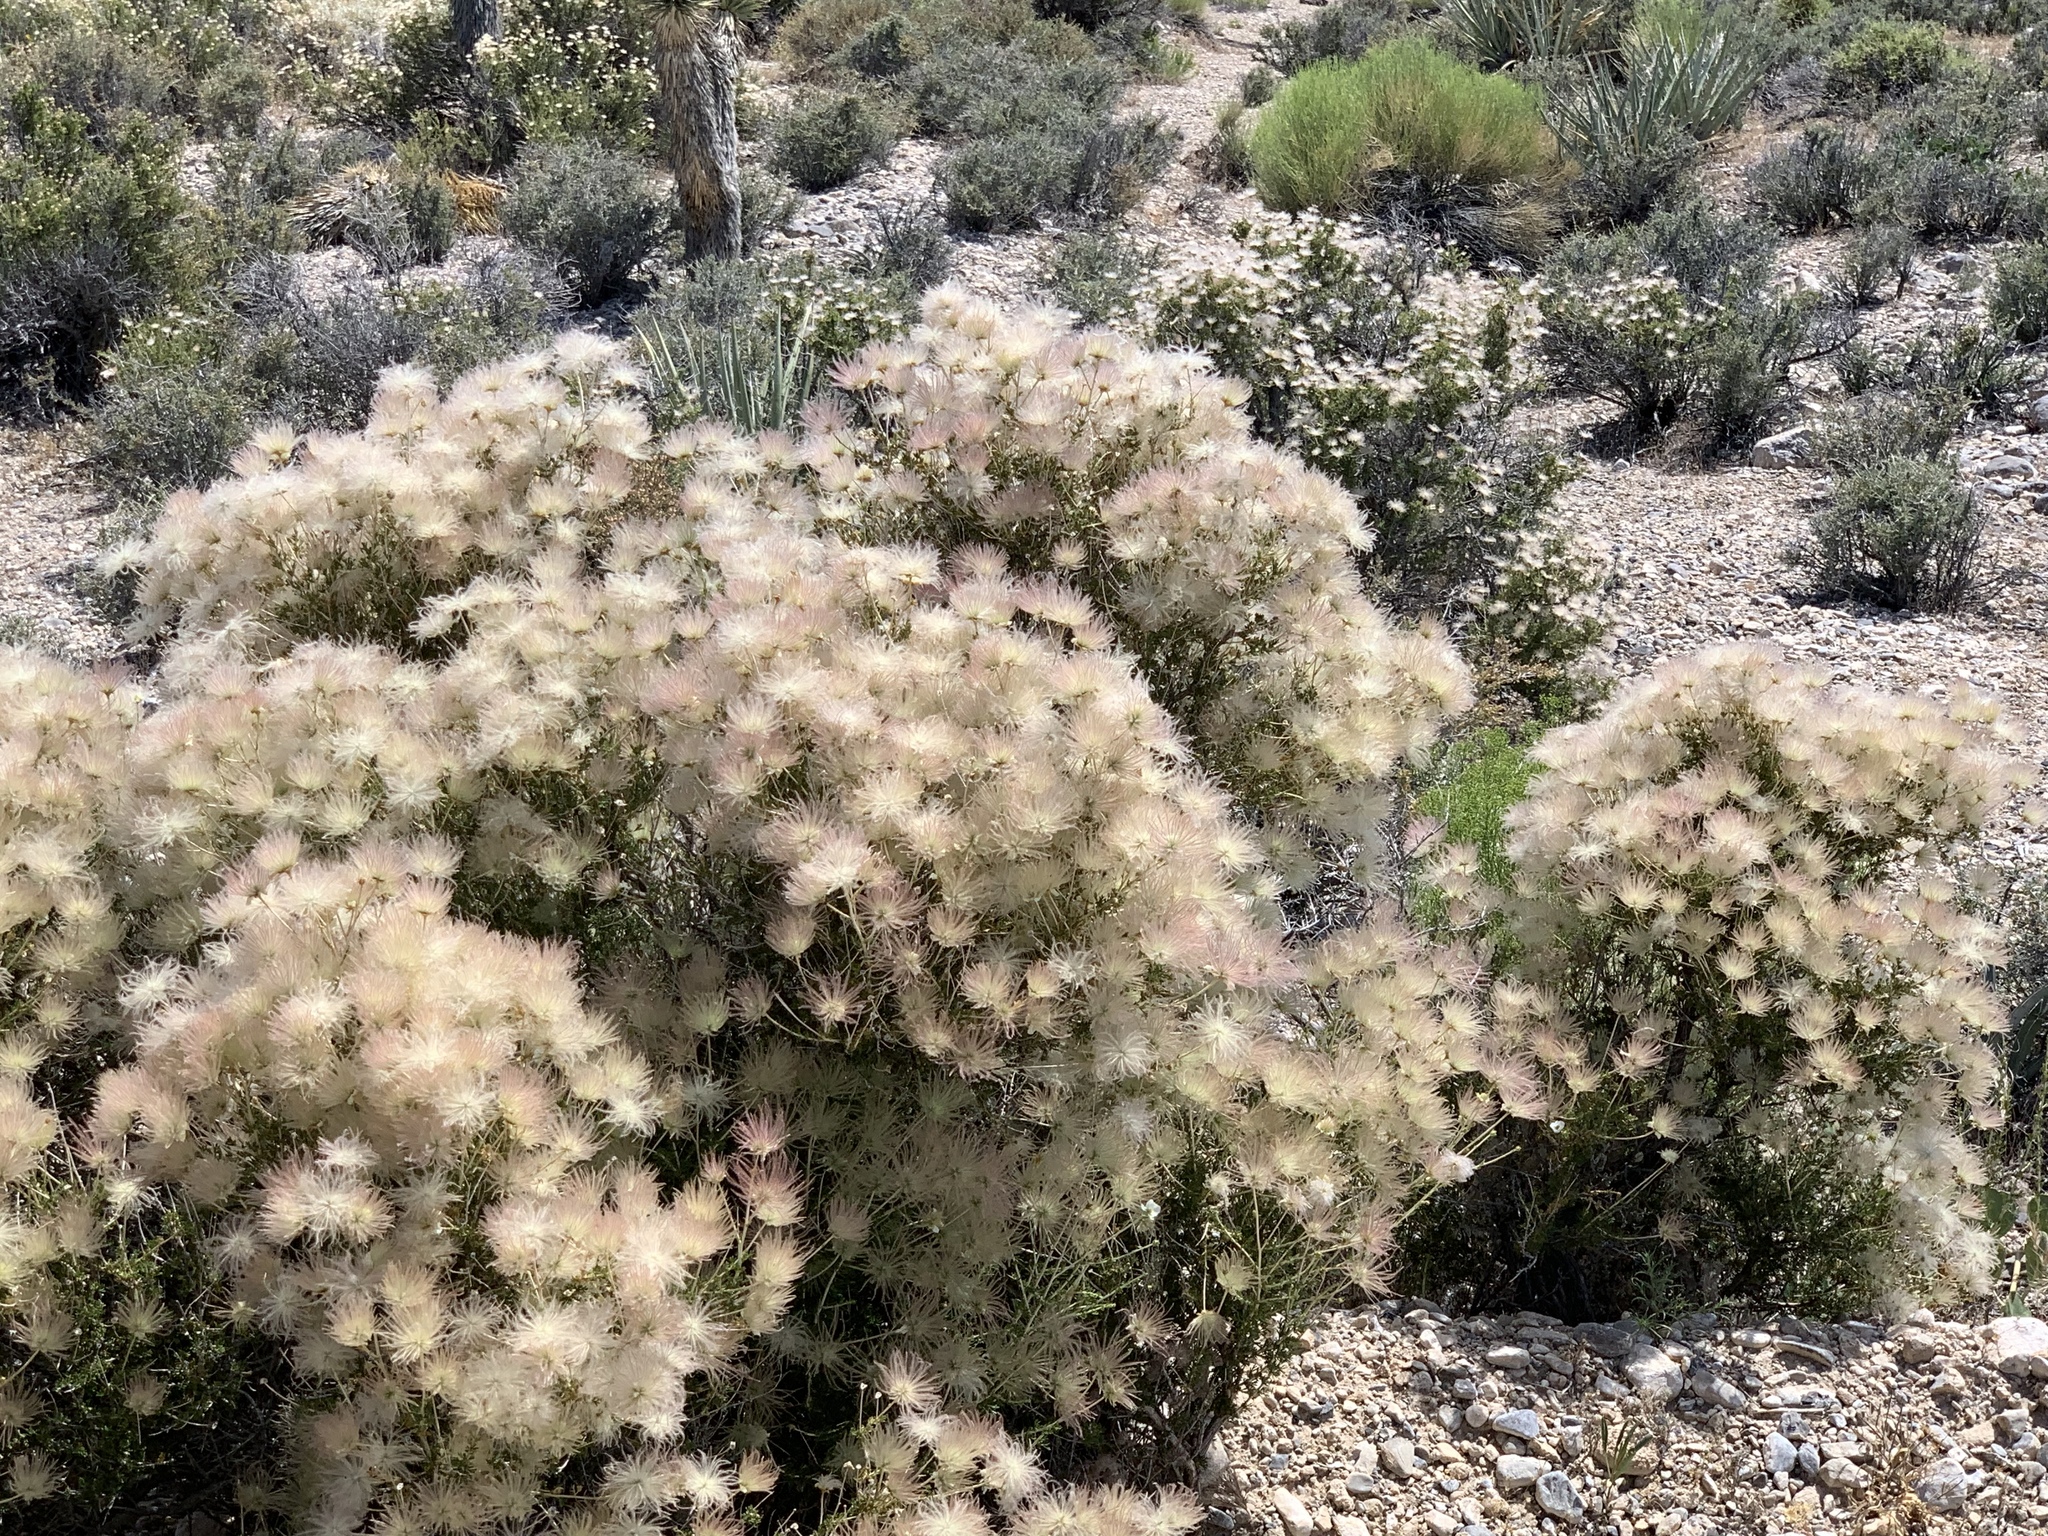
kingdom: Plantae
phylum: Tracheophyta
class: Magnoliopsida
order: Rosales
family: Rosaceae
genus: Fallugia
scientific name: Fallugia paradoxa
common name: Apache-plume
